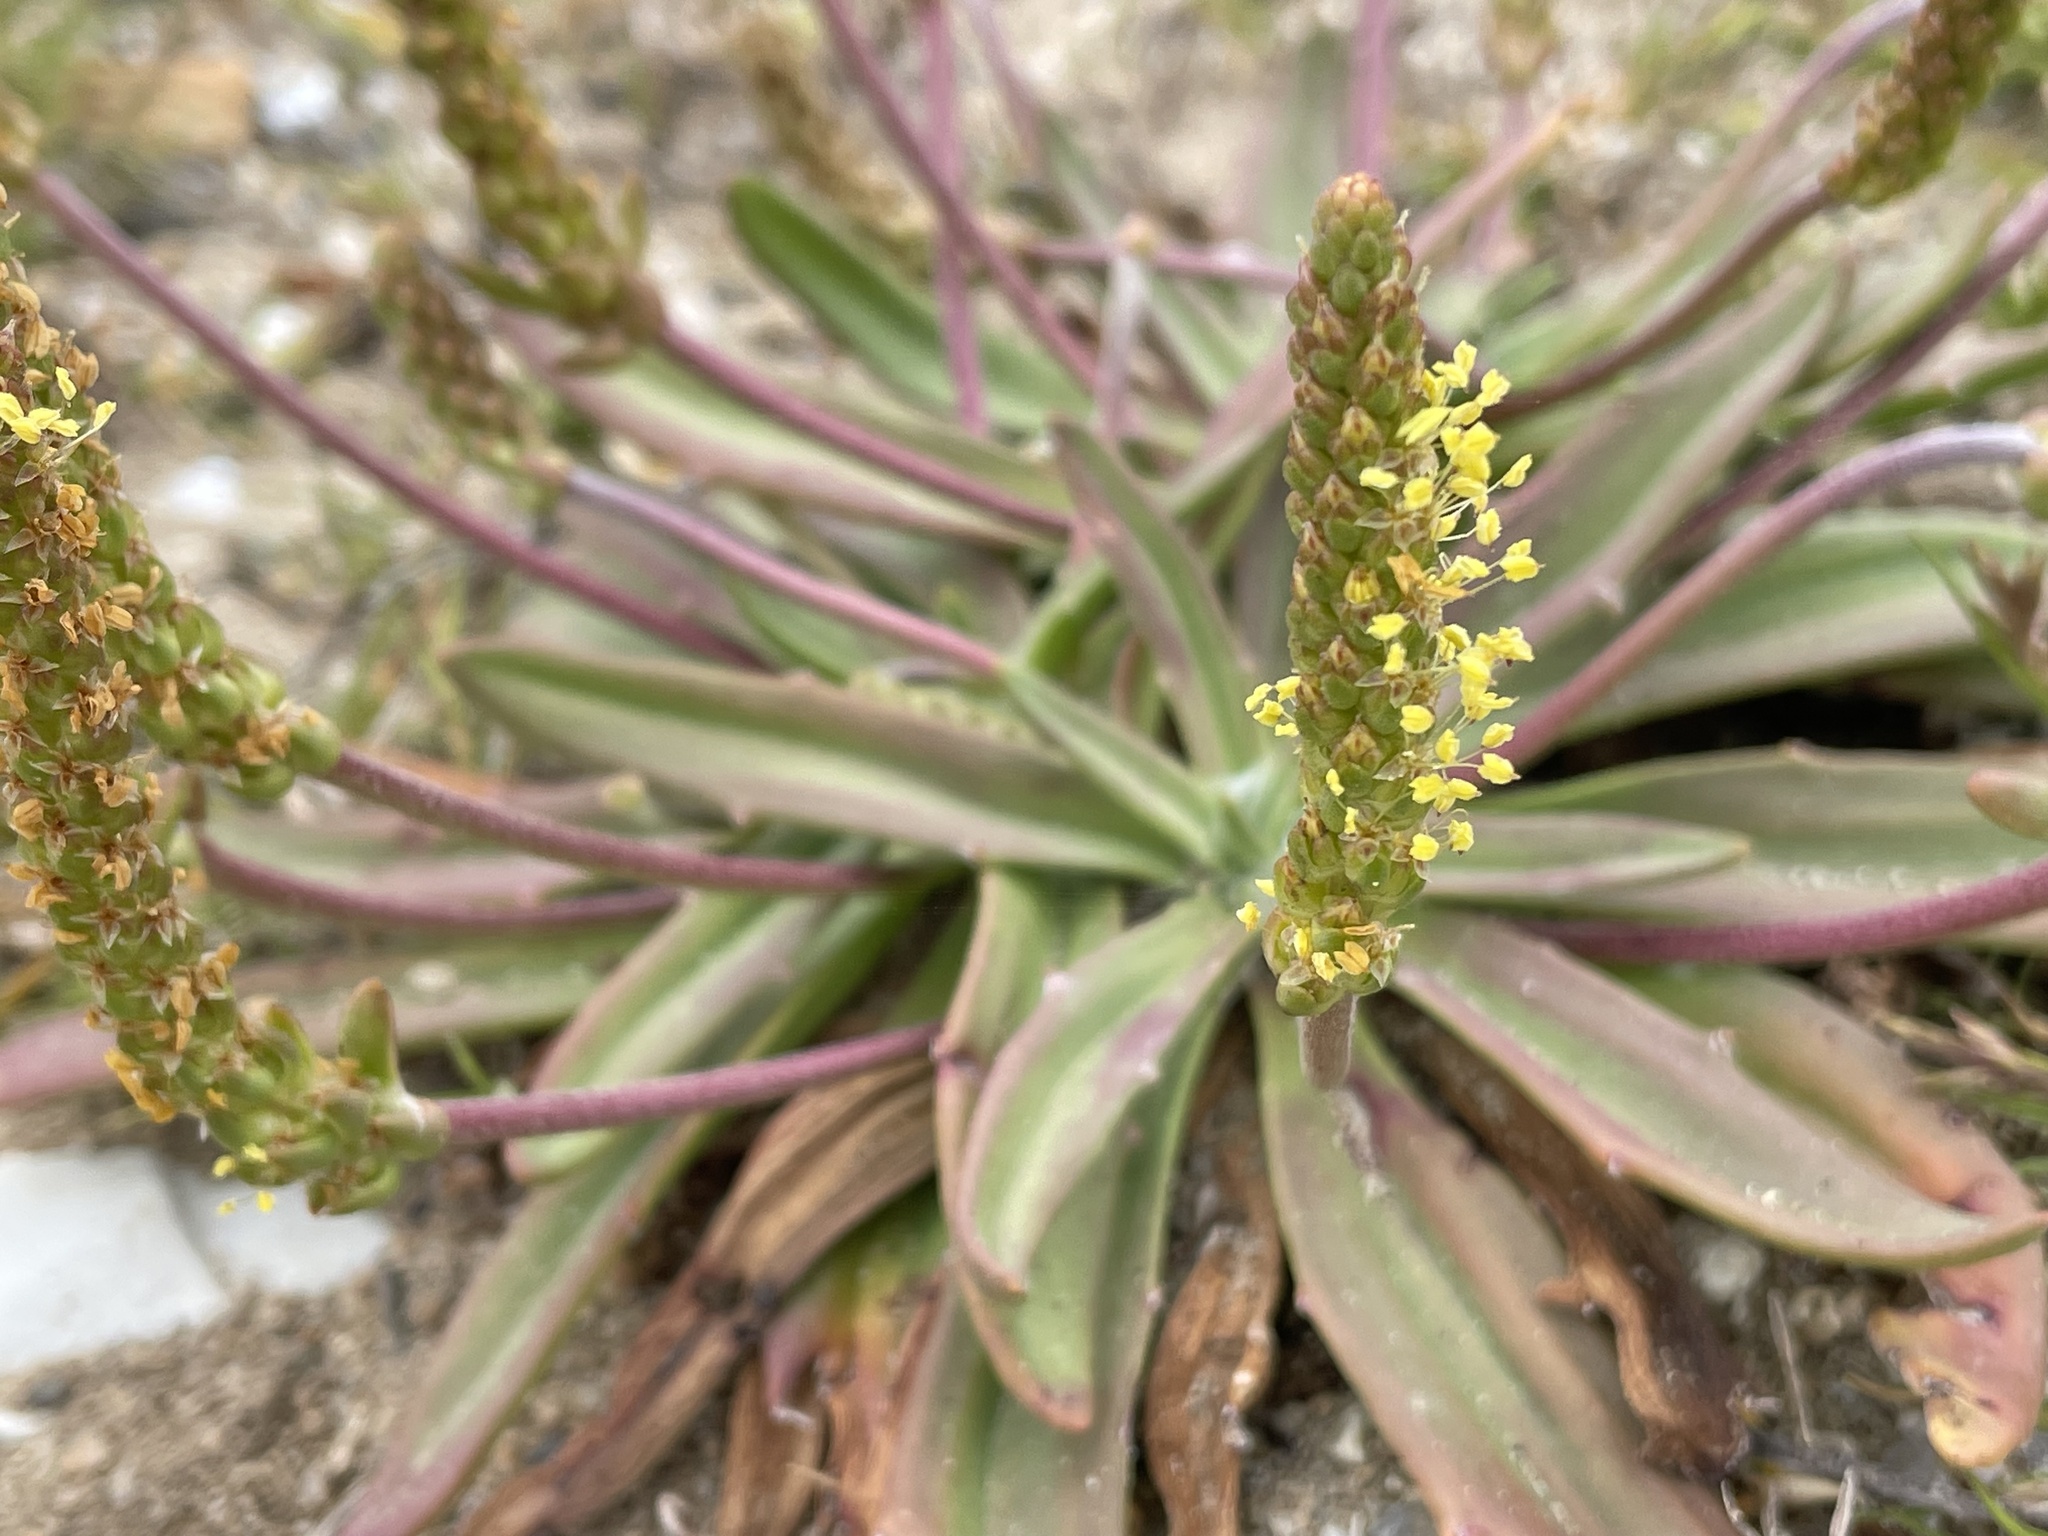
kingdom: Plantae
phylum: Tracheophyta
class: Magnoliopsida
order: Lamiales
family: Plantaginaceae
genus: Plantago
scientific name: Plantago maritima
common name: Sea plantain
